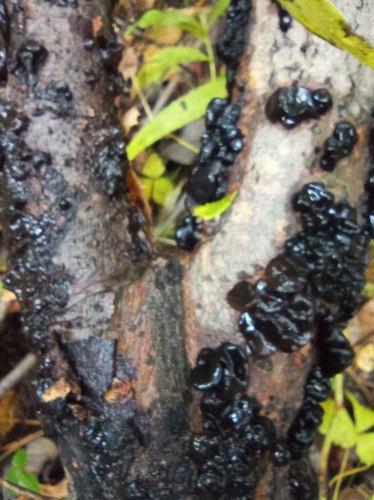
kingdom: Fungi
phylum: Basidiomycota
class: Agaricomycetes
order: Auriculariales
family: Auriculariaceae
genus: Exidia
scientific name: Exidia glandulosa
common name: Witches' butter
